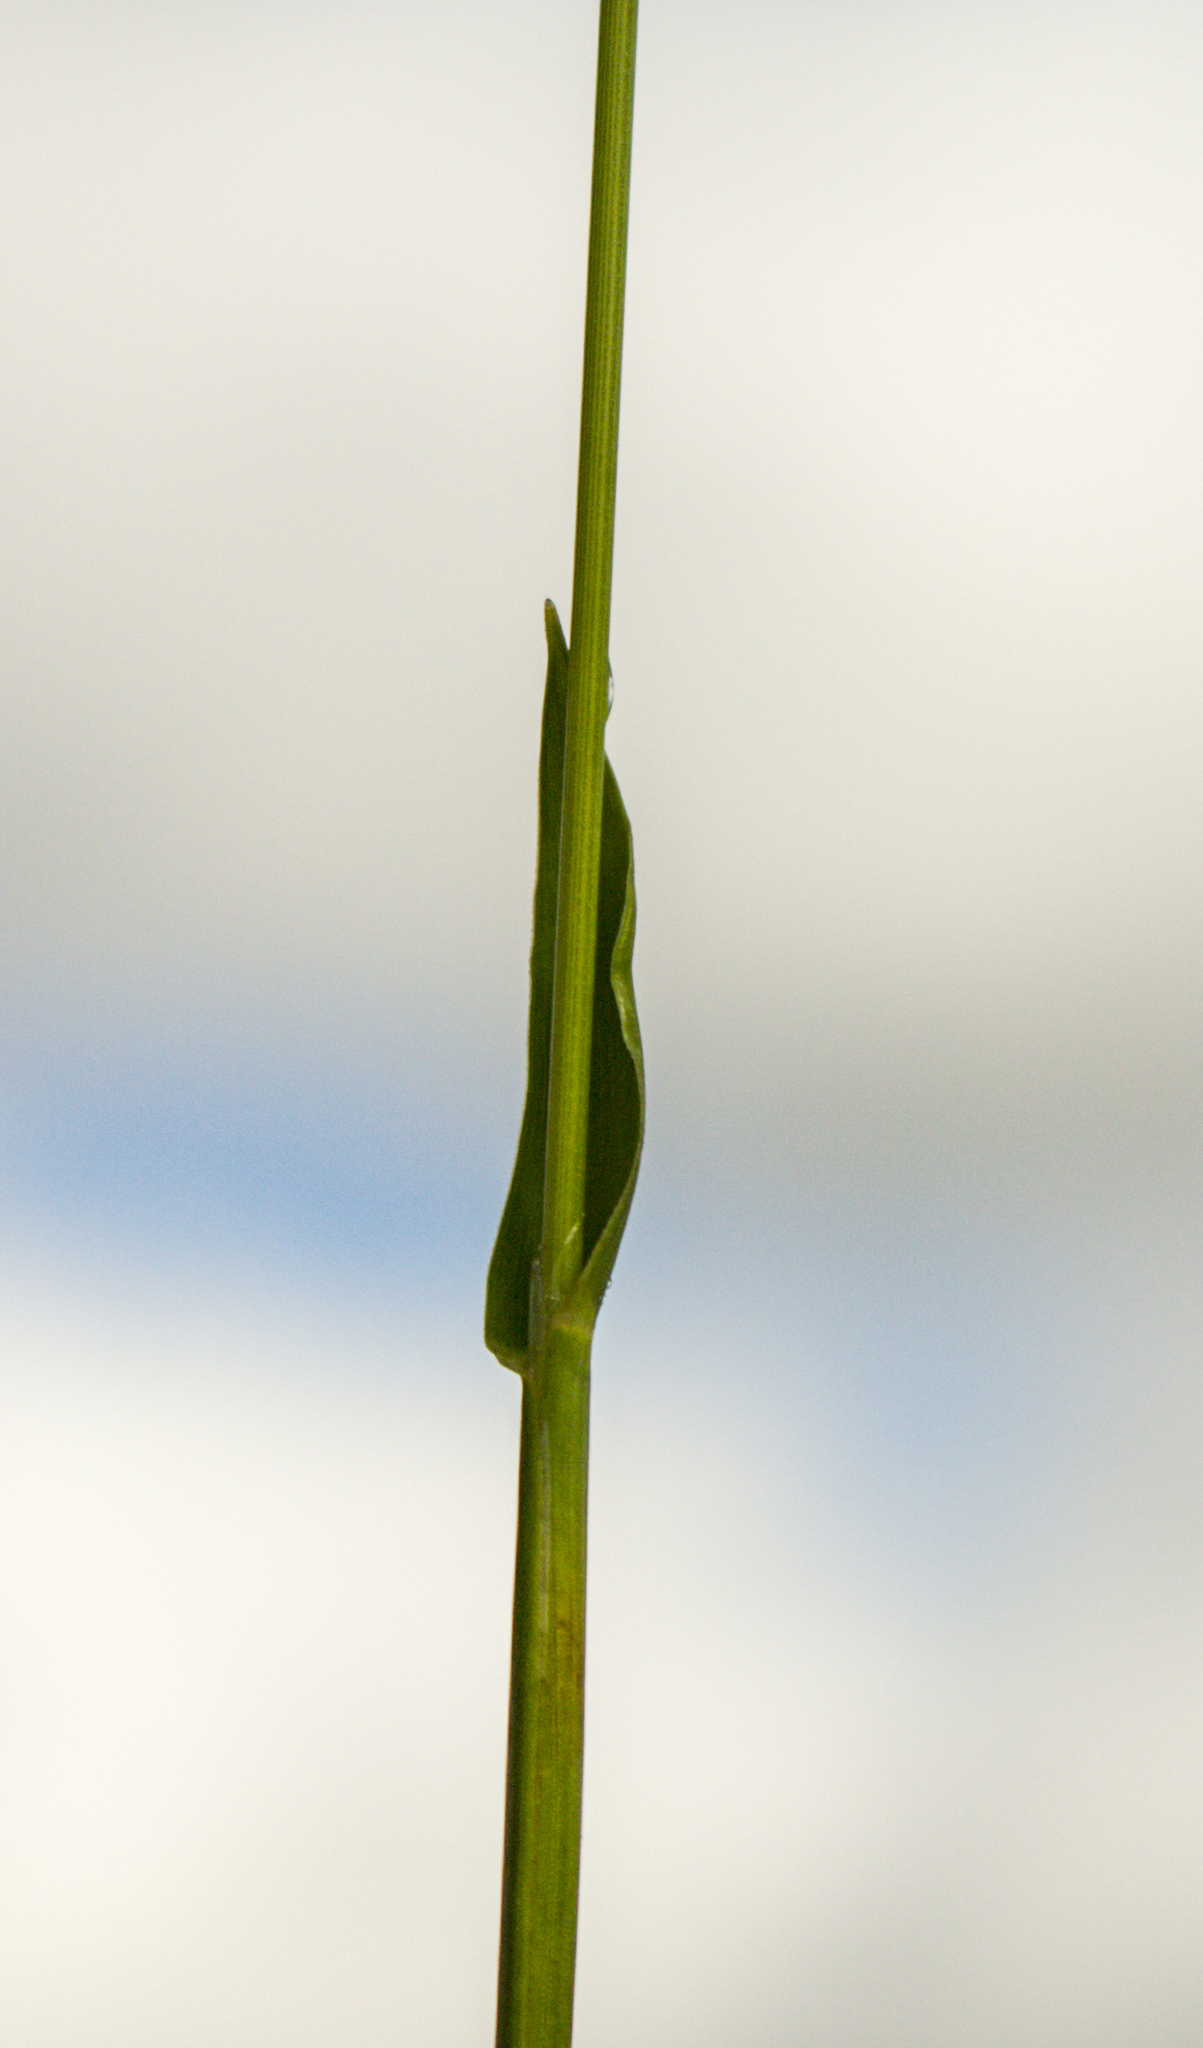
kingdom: Plantae
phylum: Tracheophyta
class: Liliopsida
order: Poales
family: Poaceae
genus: Anthoxanthum
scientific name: Anthoxanthum nitens
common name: Holy grass
